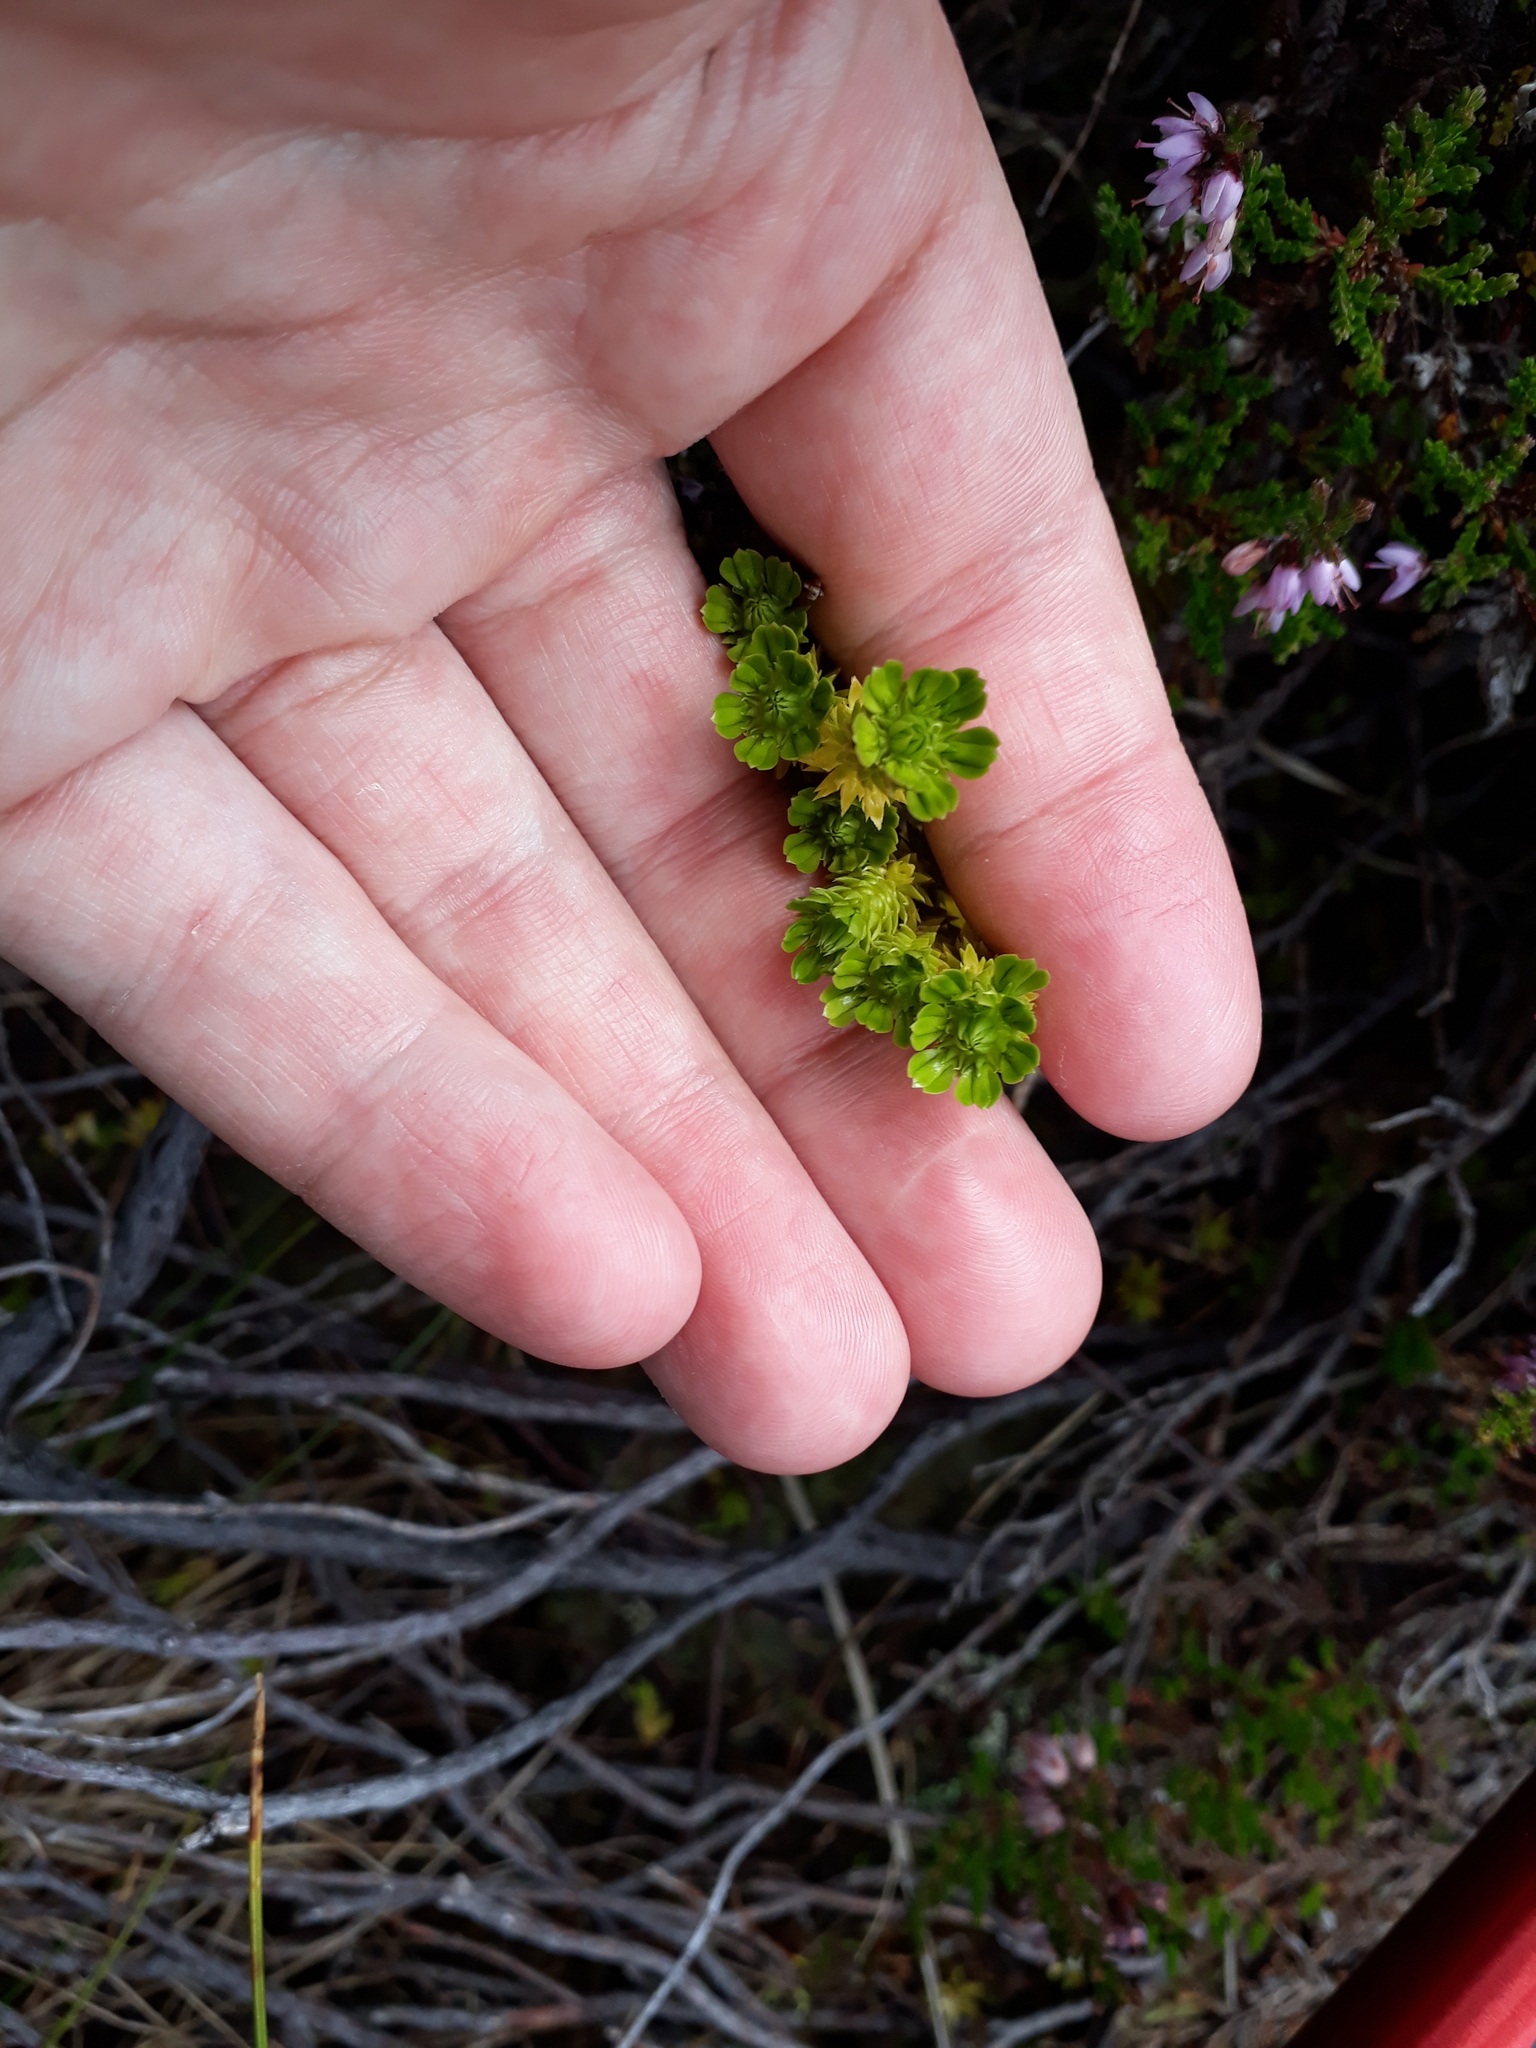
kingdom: Plantae
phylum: Tracheophyta
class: Lycopodiopsida
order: Lycopodiales
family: Lycopodiaceae
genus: Huperzia
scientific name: Huperzia selago
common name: Northern firmoss
